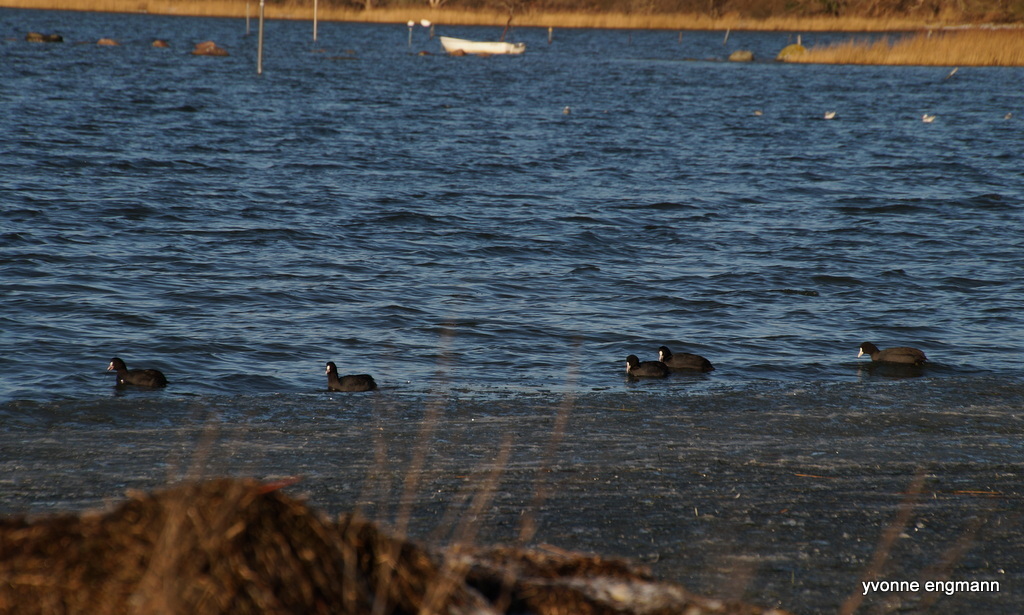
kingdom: Animalia
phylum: Chordata
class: Aves
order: Gruiformes
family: Rallidae
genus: Fulica
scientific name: Fulica atra
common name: Eurasian coot
